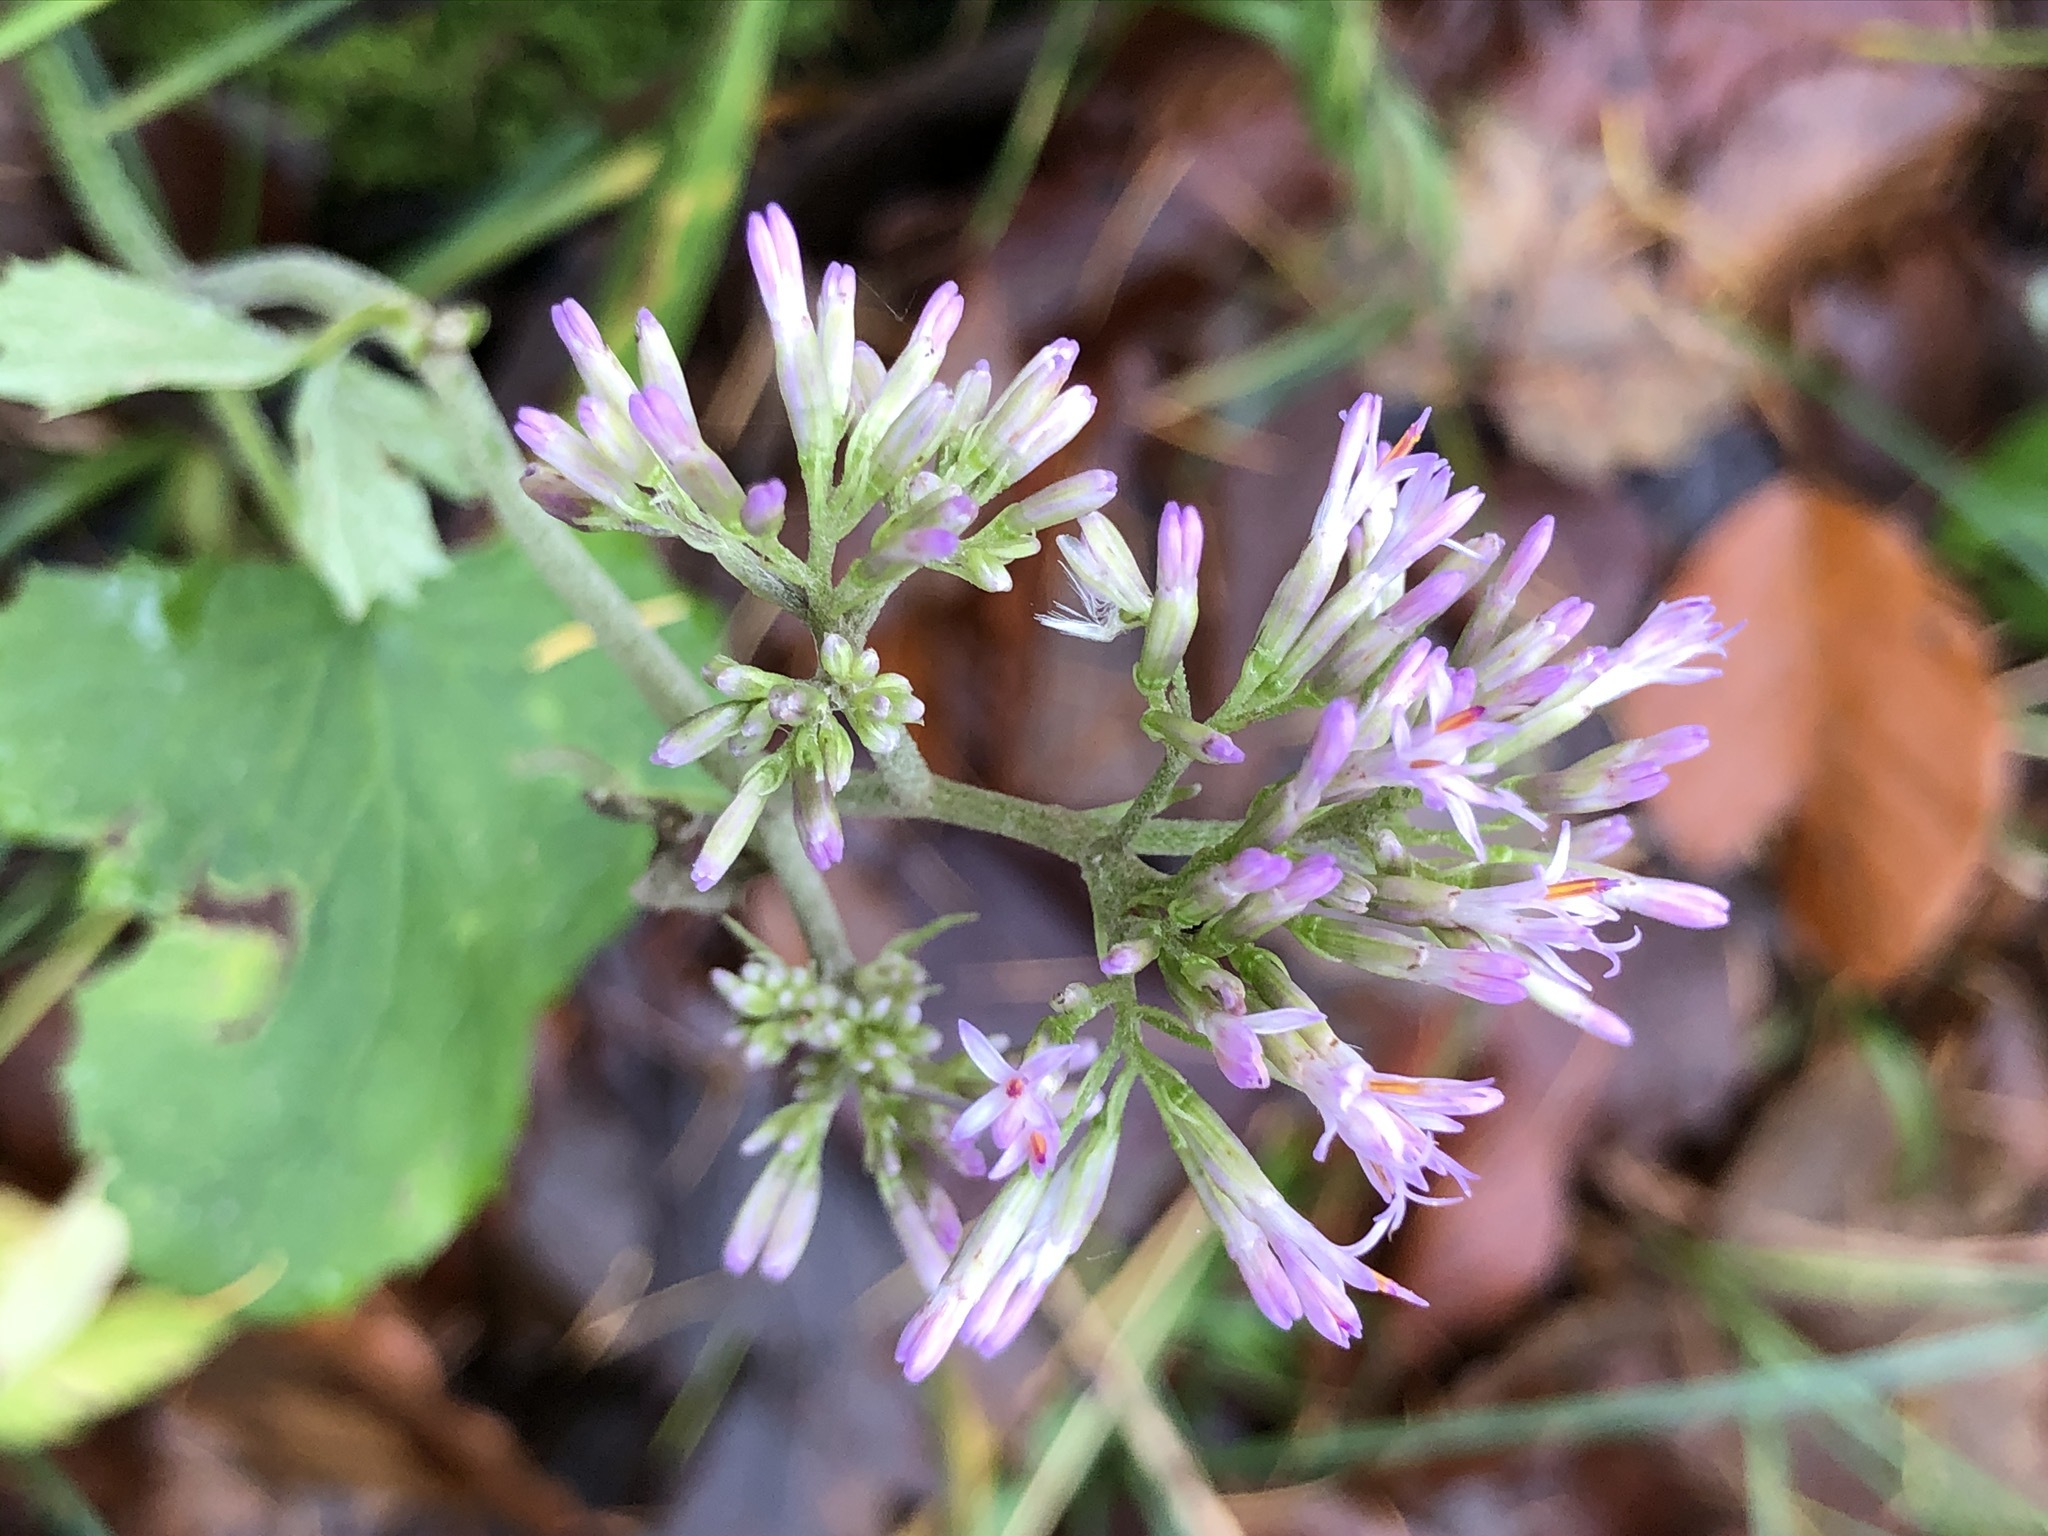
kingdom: Plantae
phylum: Tracheophyta
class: Magnoliopsida
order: Asterales
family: Asteraceae
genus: Adenostyles
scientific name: Adenostyles alpina
